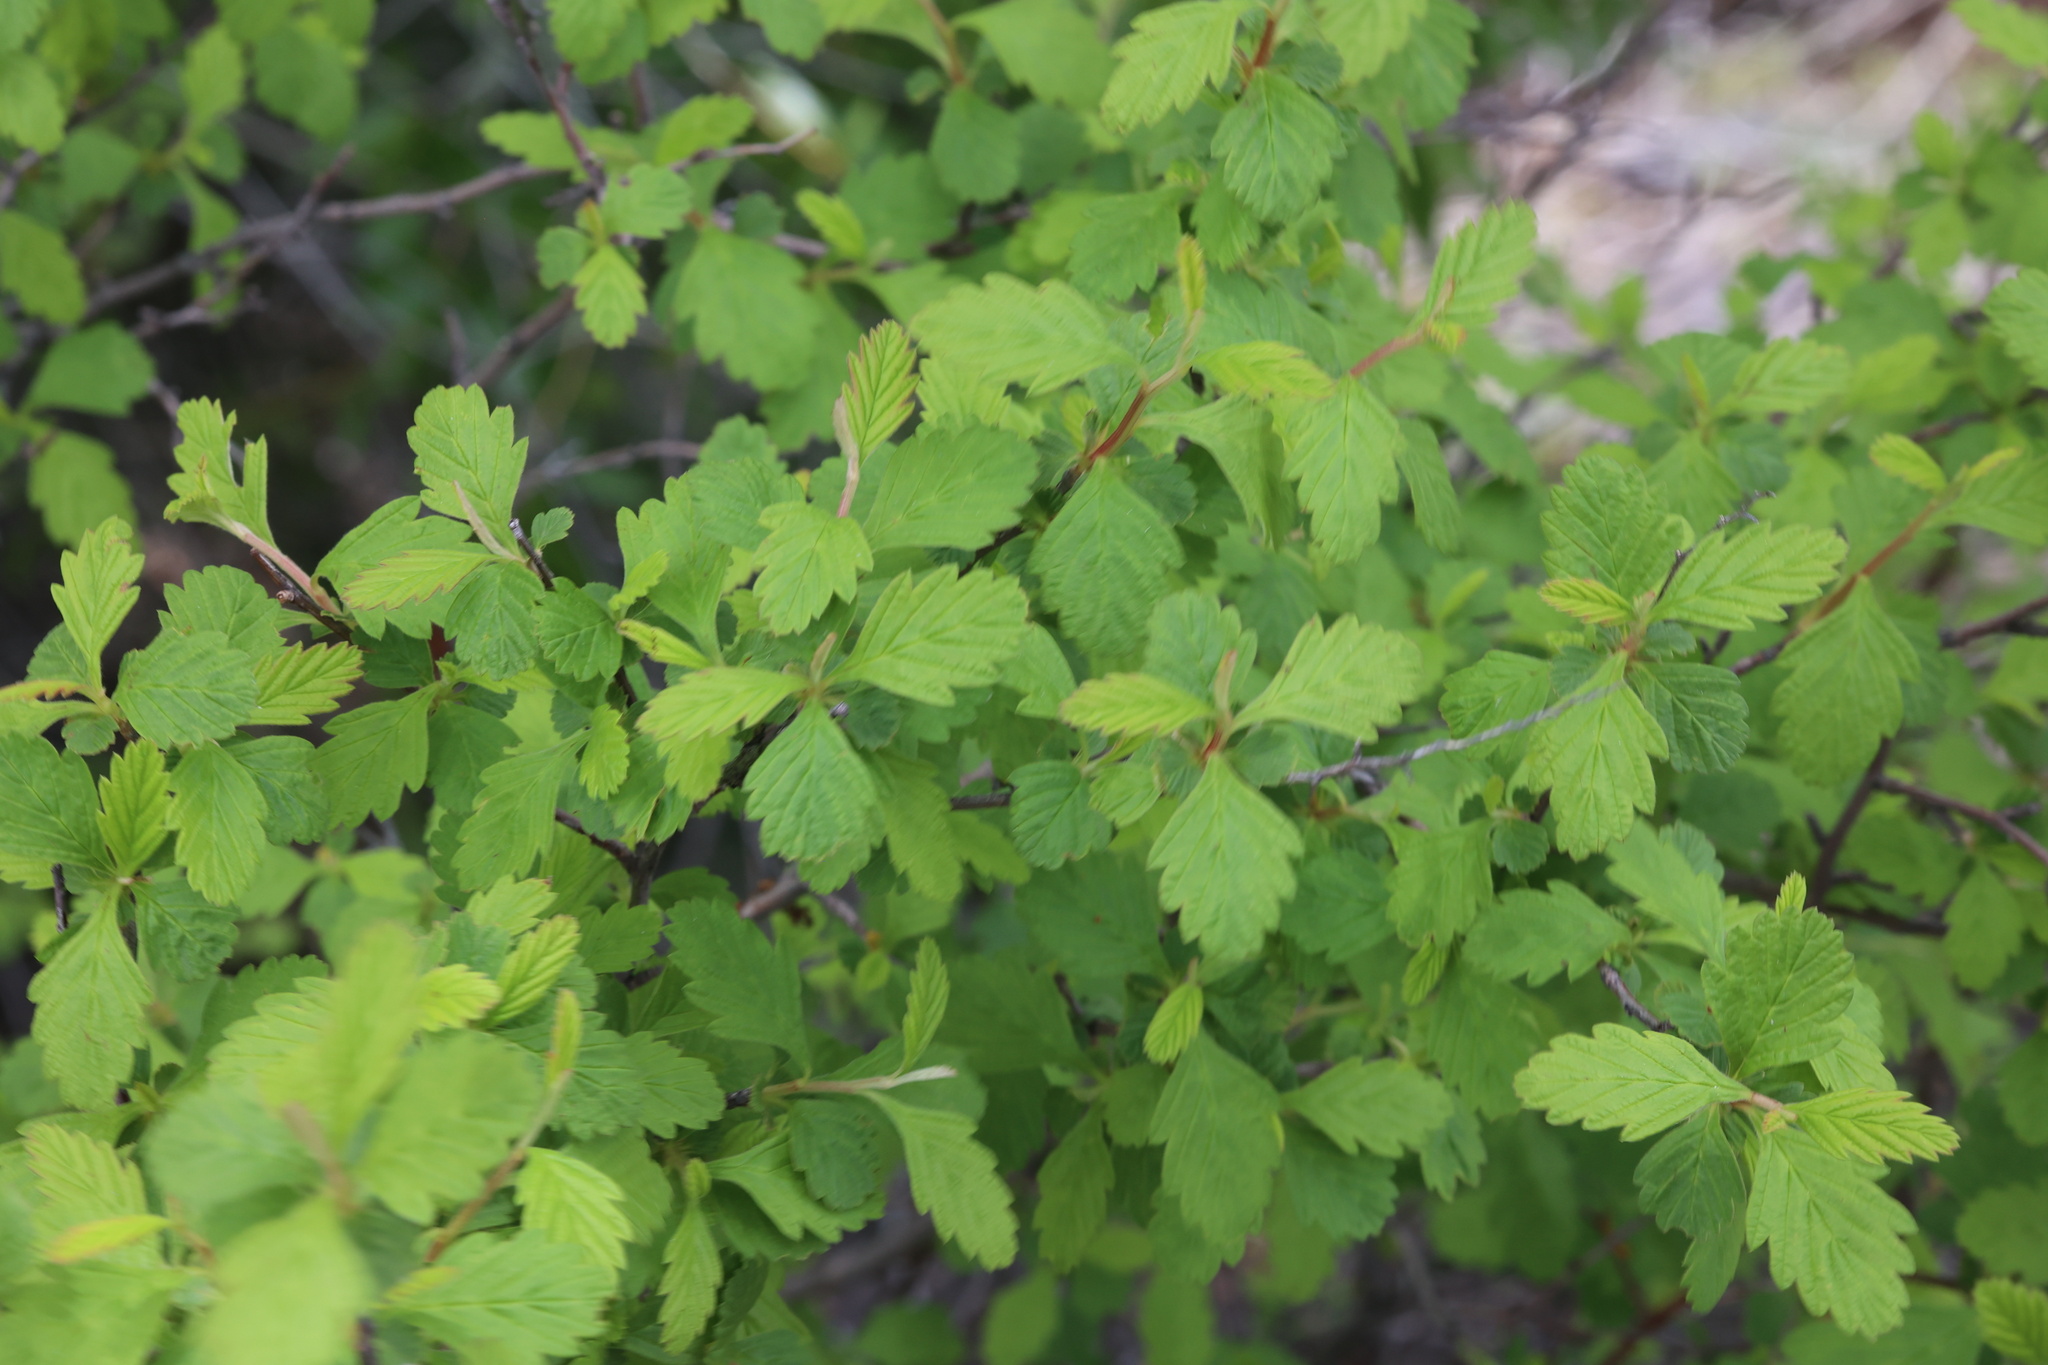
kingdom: Plantae
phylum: Tracheophyta
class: Magnoliopsida
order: Rosales
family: Rosaceae
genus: Holodiscus
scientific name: Holodiscus discolor
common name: Oceanspray
